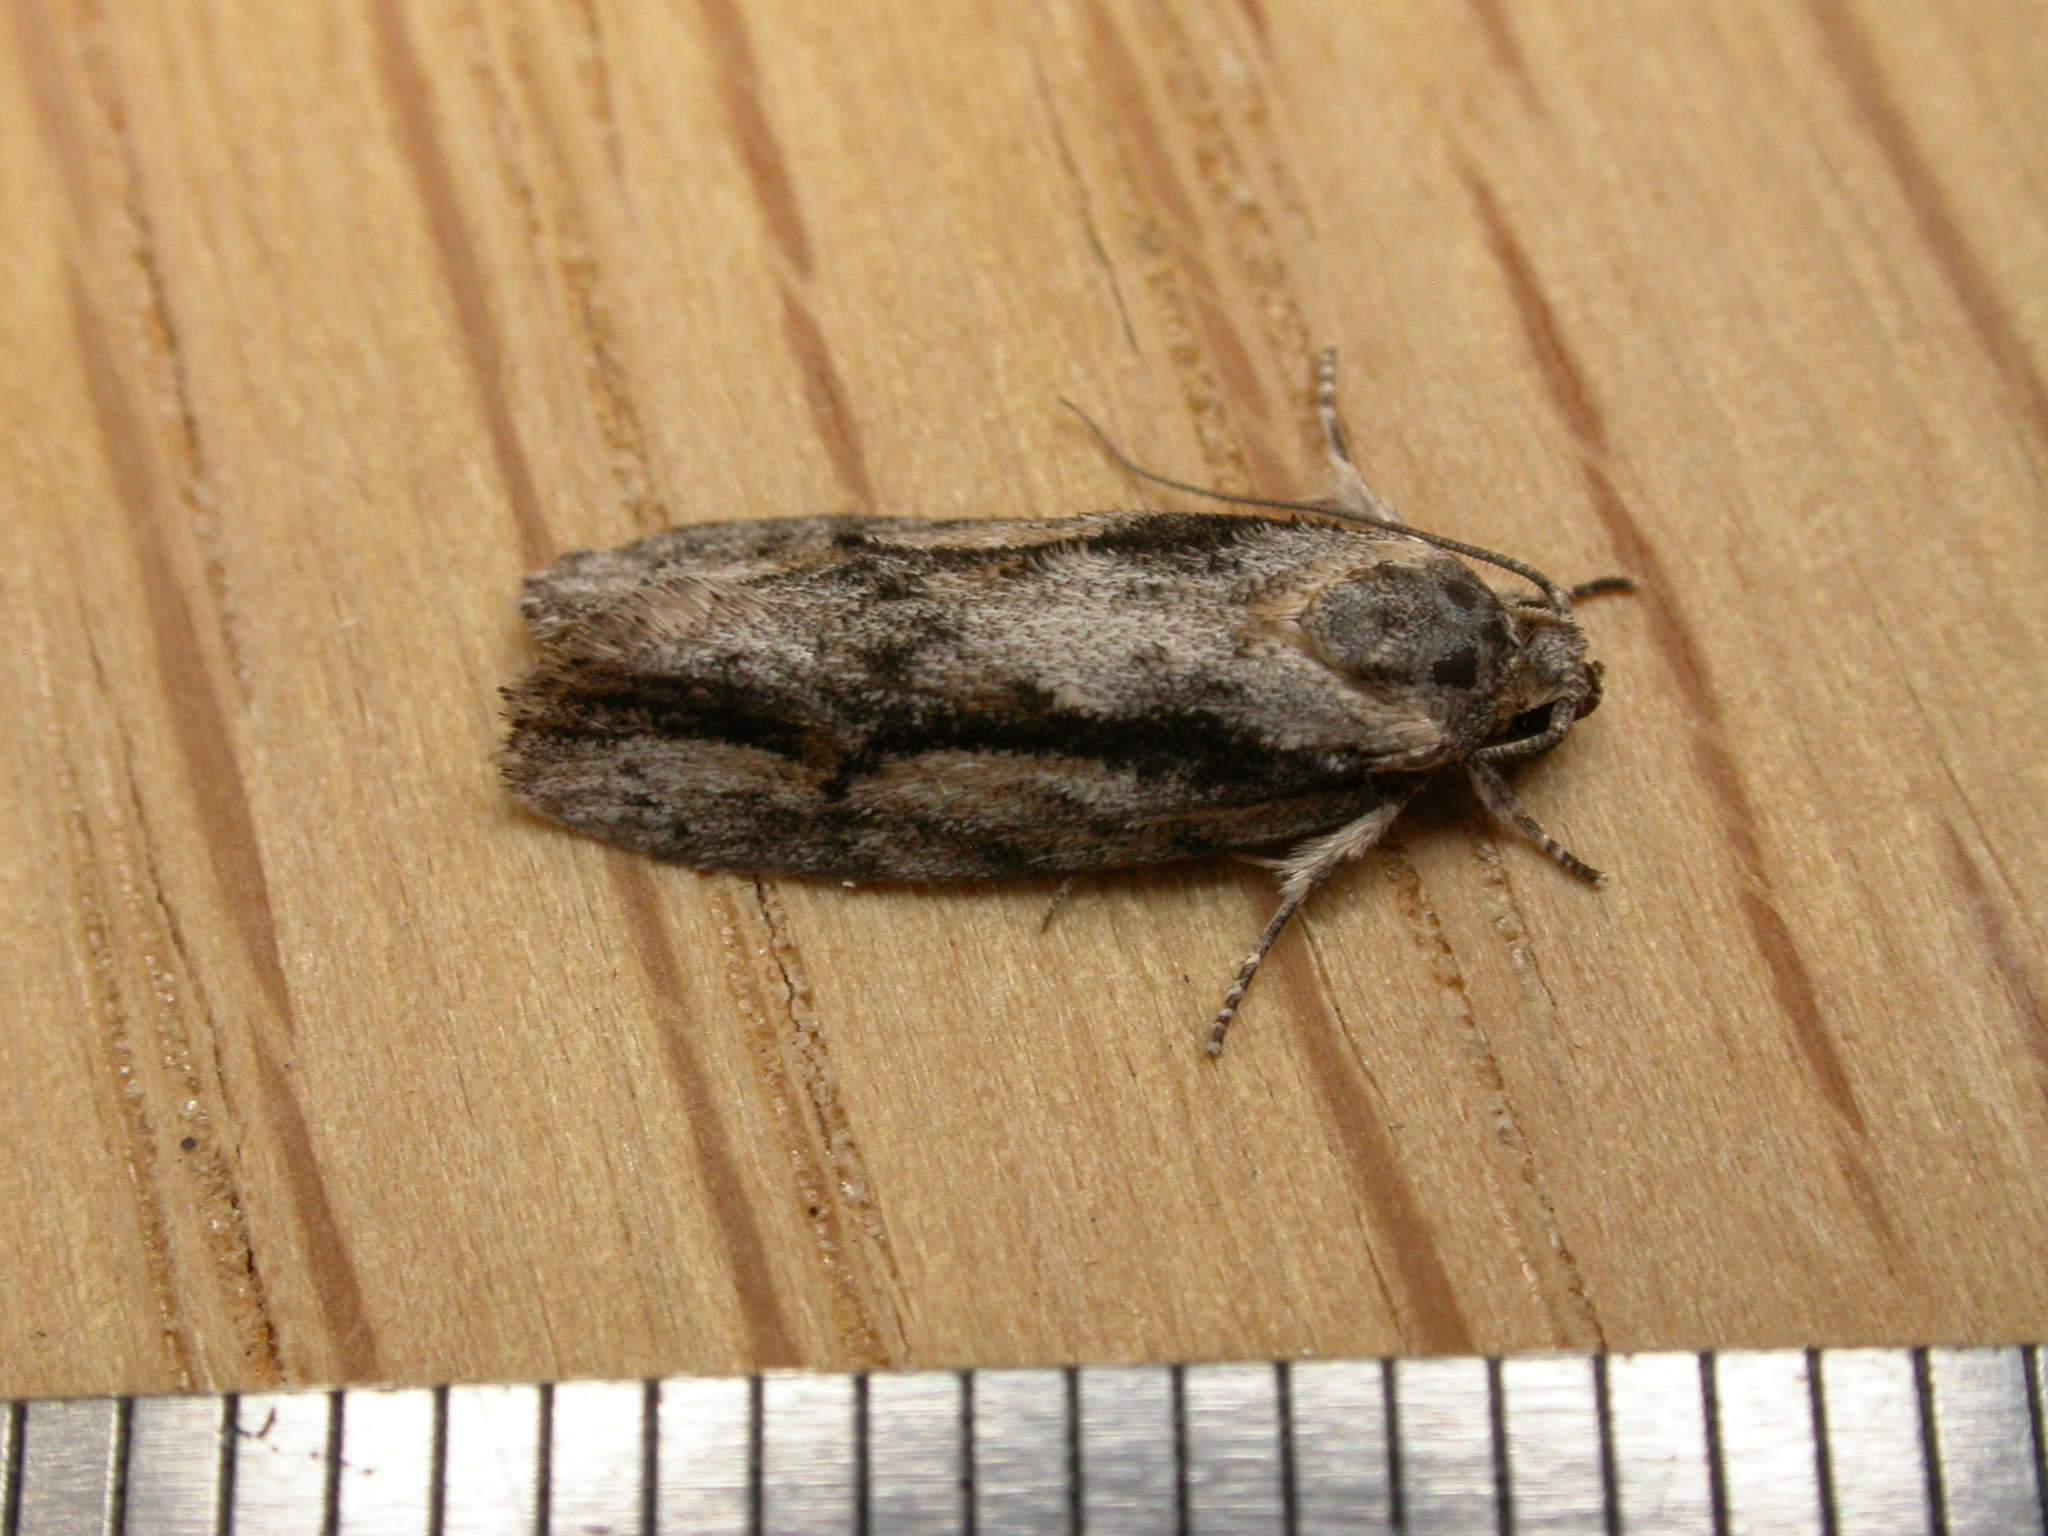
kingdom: Animalia
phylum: Arthropoda
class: Insecta
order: Lepidoptera
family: Depressariidae
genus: Agriophara
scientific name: Agriophara leptosemela
